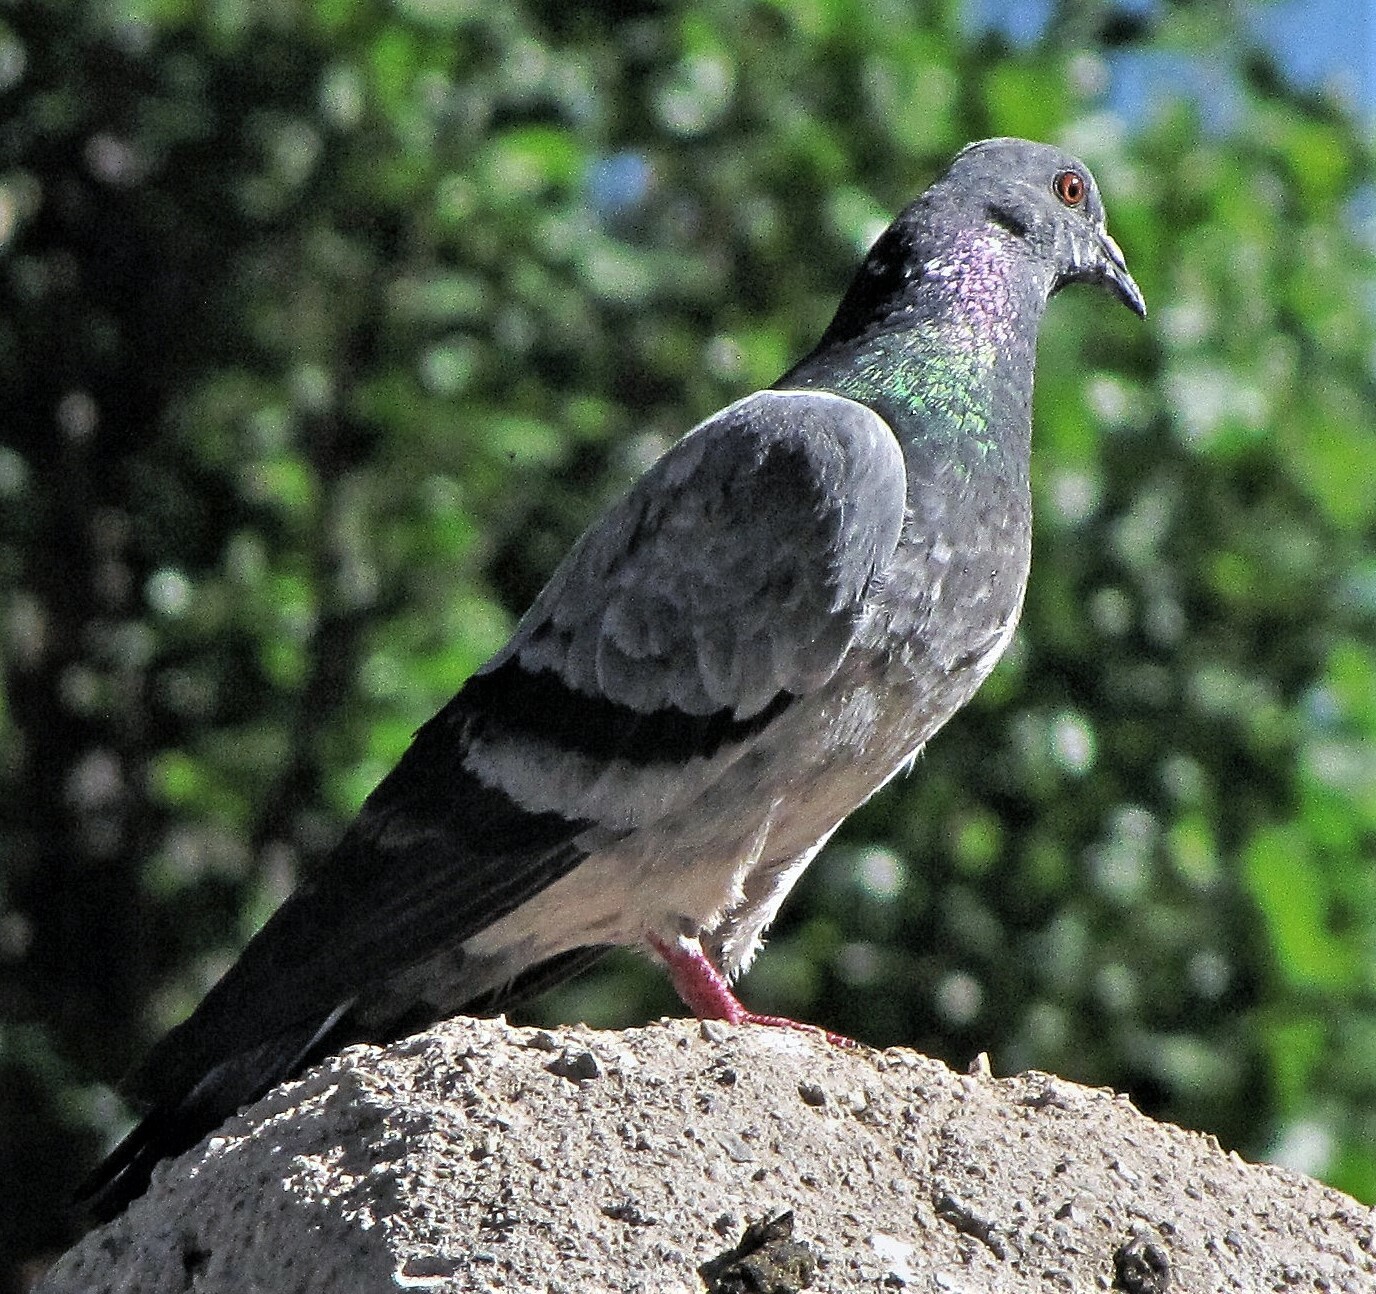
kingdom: Animalia
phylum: Chordata
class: Aves
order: Columbiformes
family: Columbidae
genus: Columba
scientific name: Columba livia
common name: Rock pigeon
